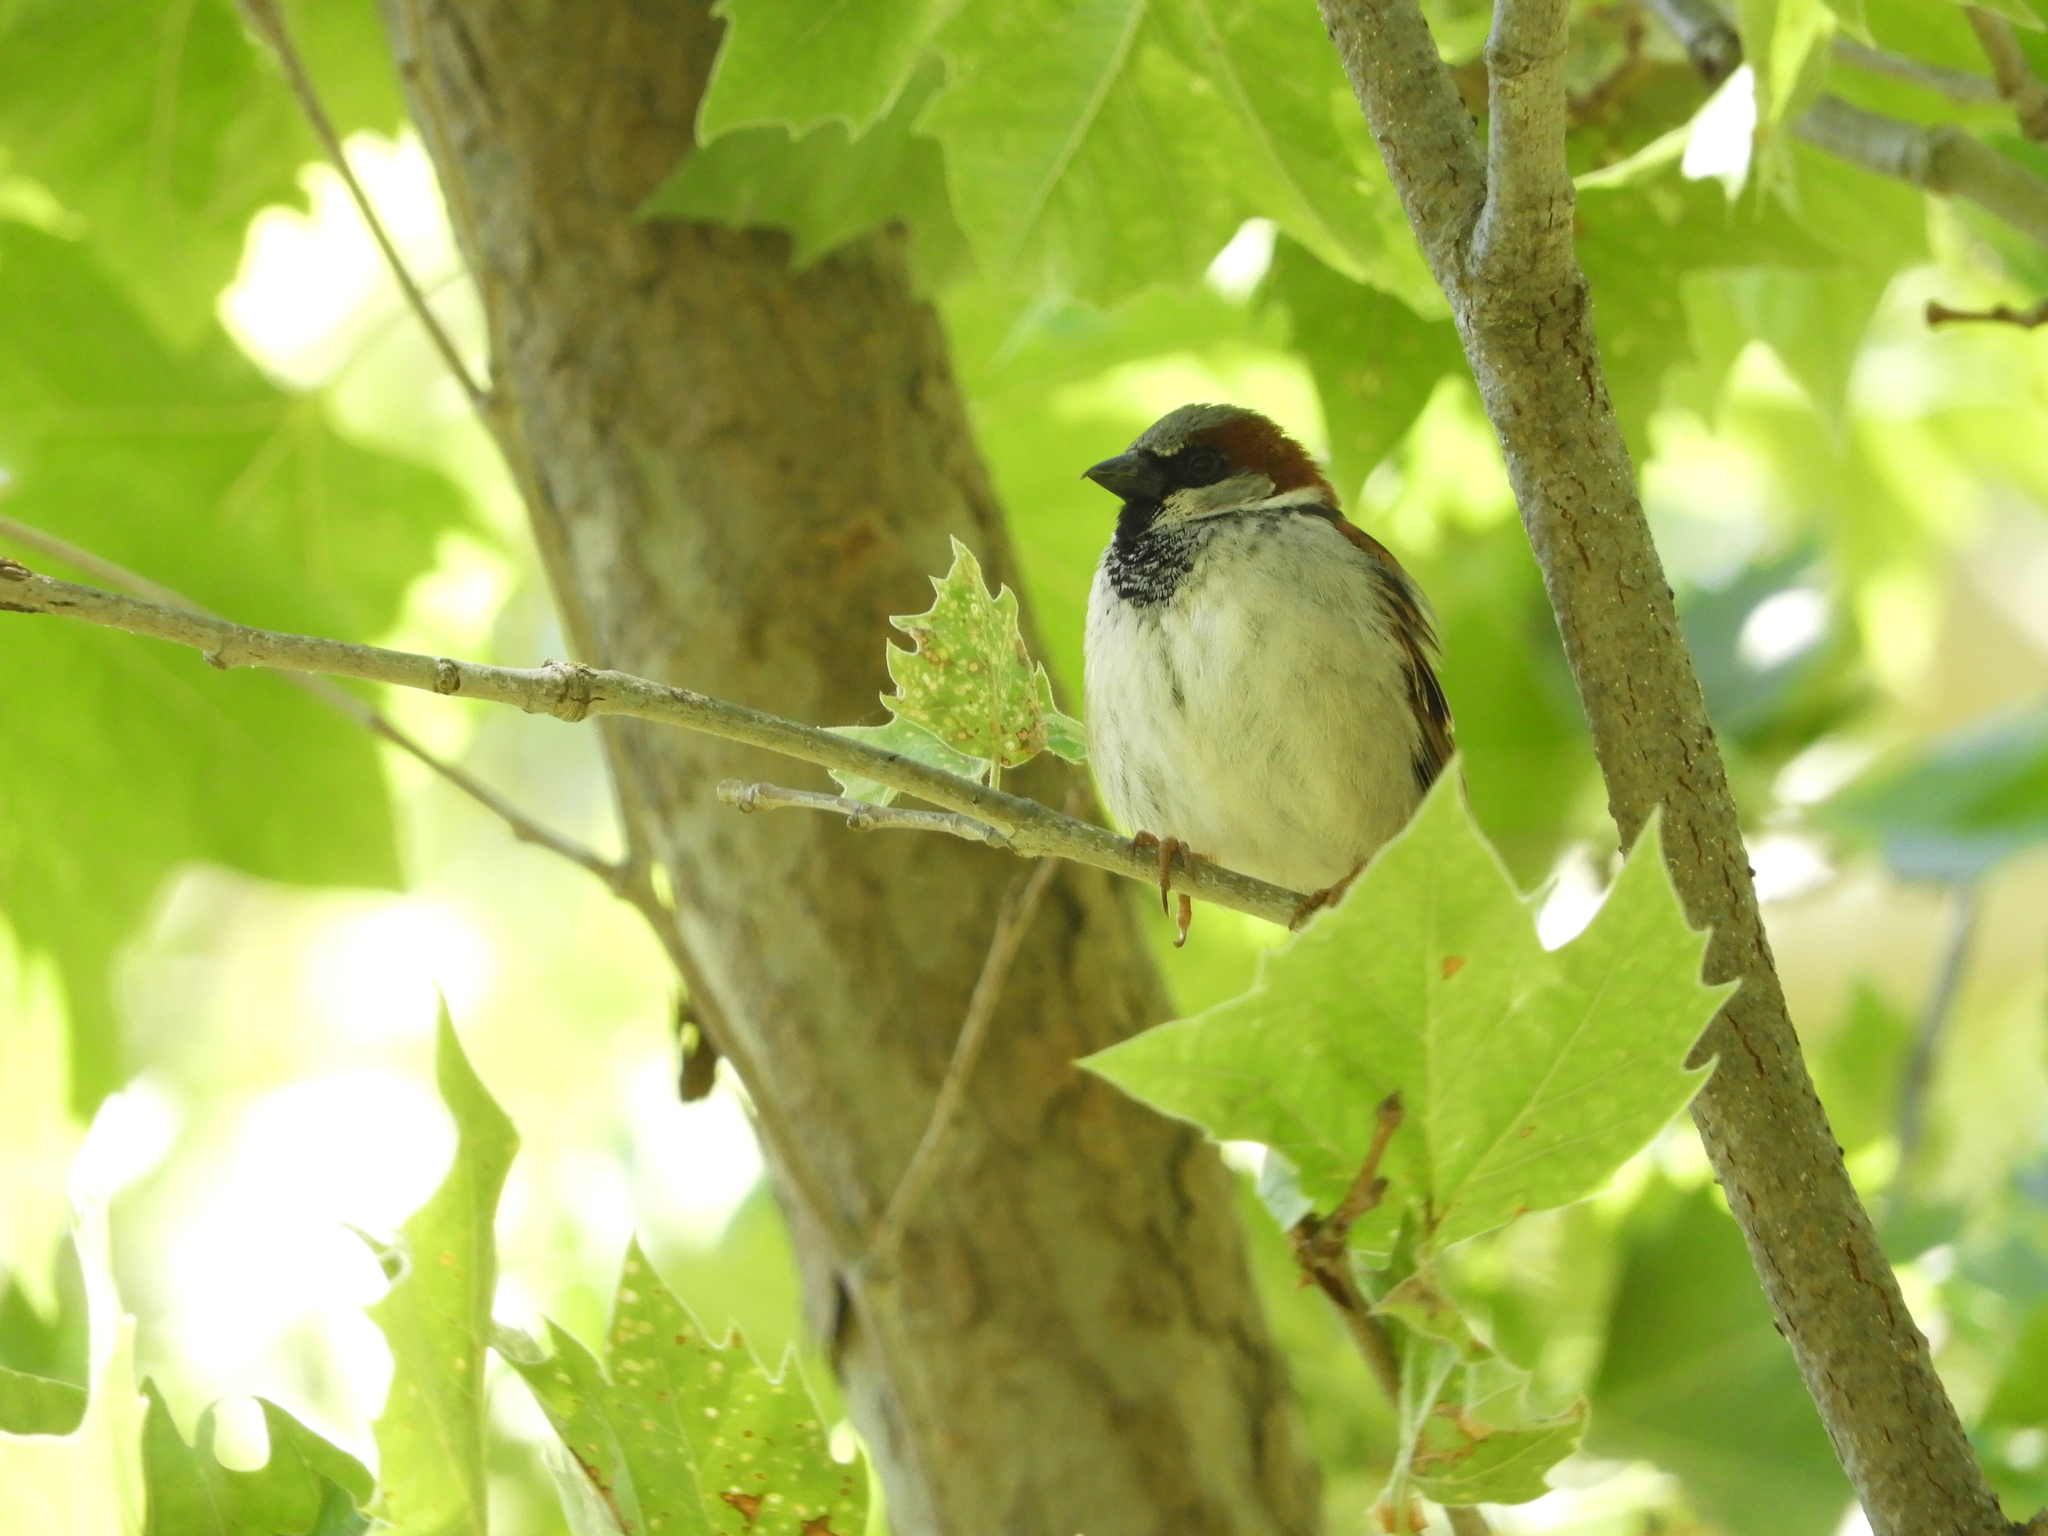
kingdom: Animalia
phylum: Chordata
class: Aves
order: Passeriformes
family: Passeridae
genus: Passer
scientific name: Passer domesticus
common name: House sparrow
